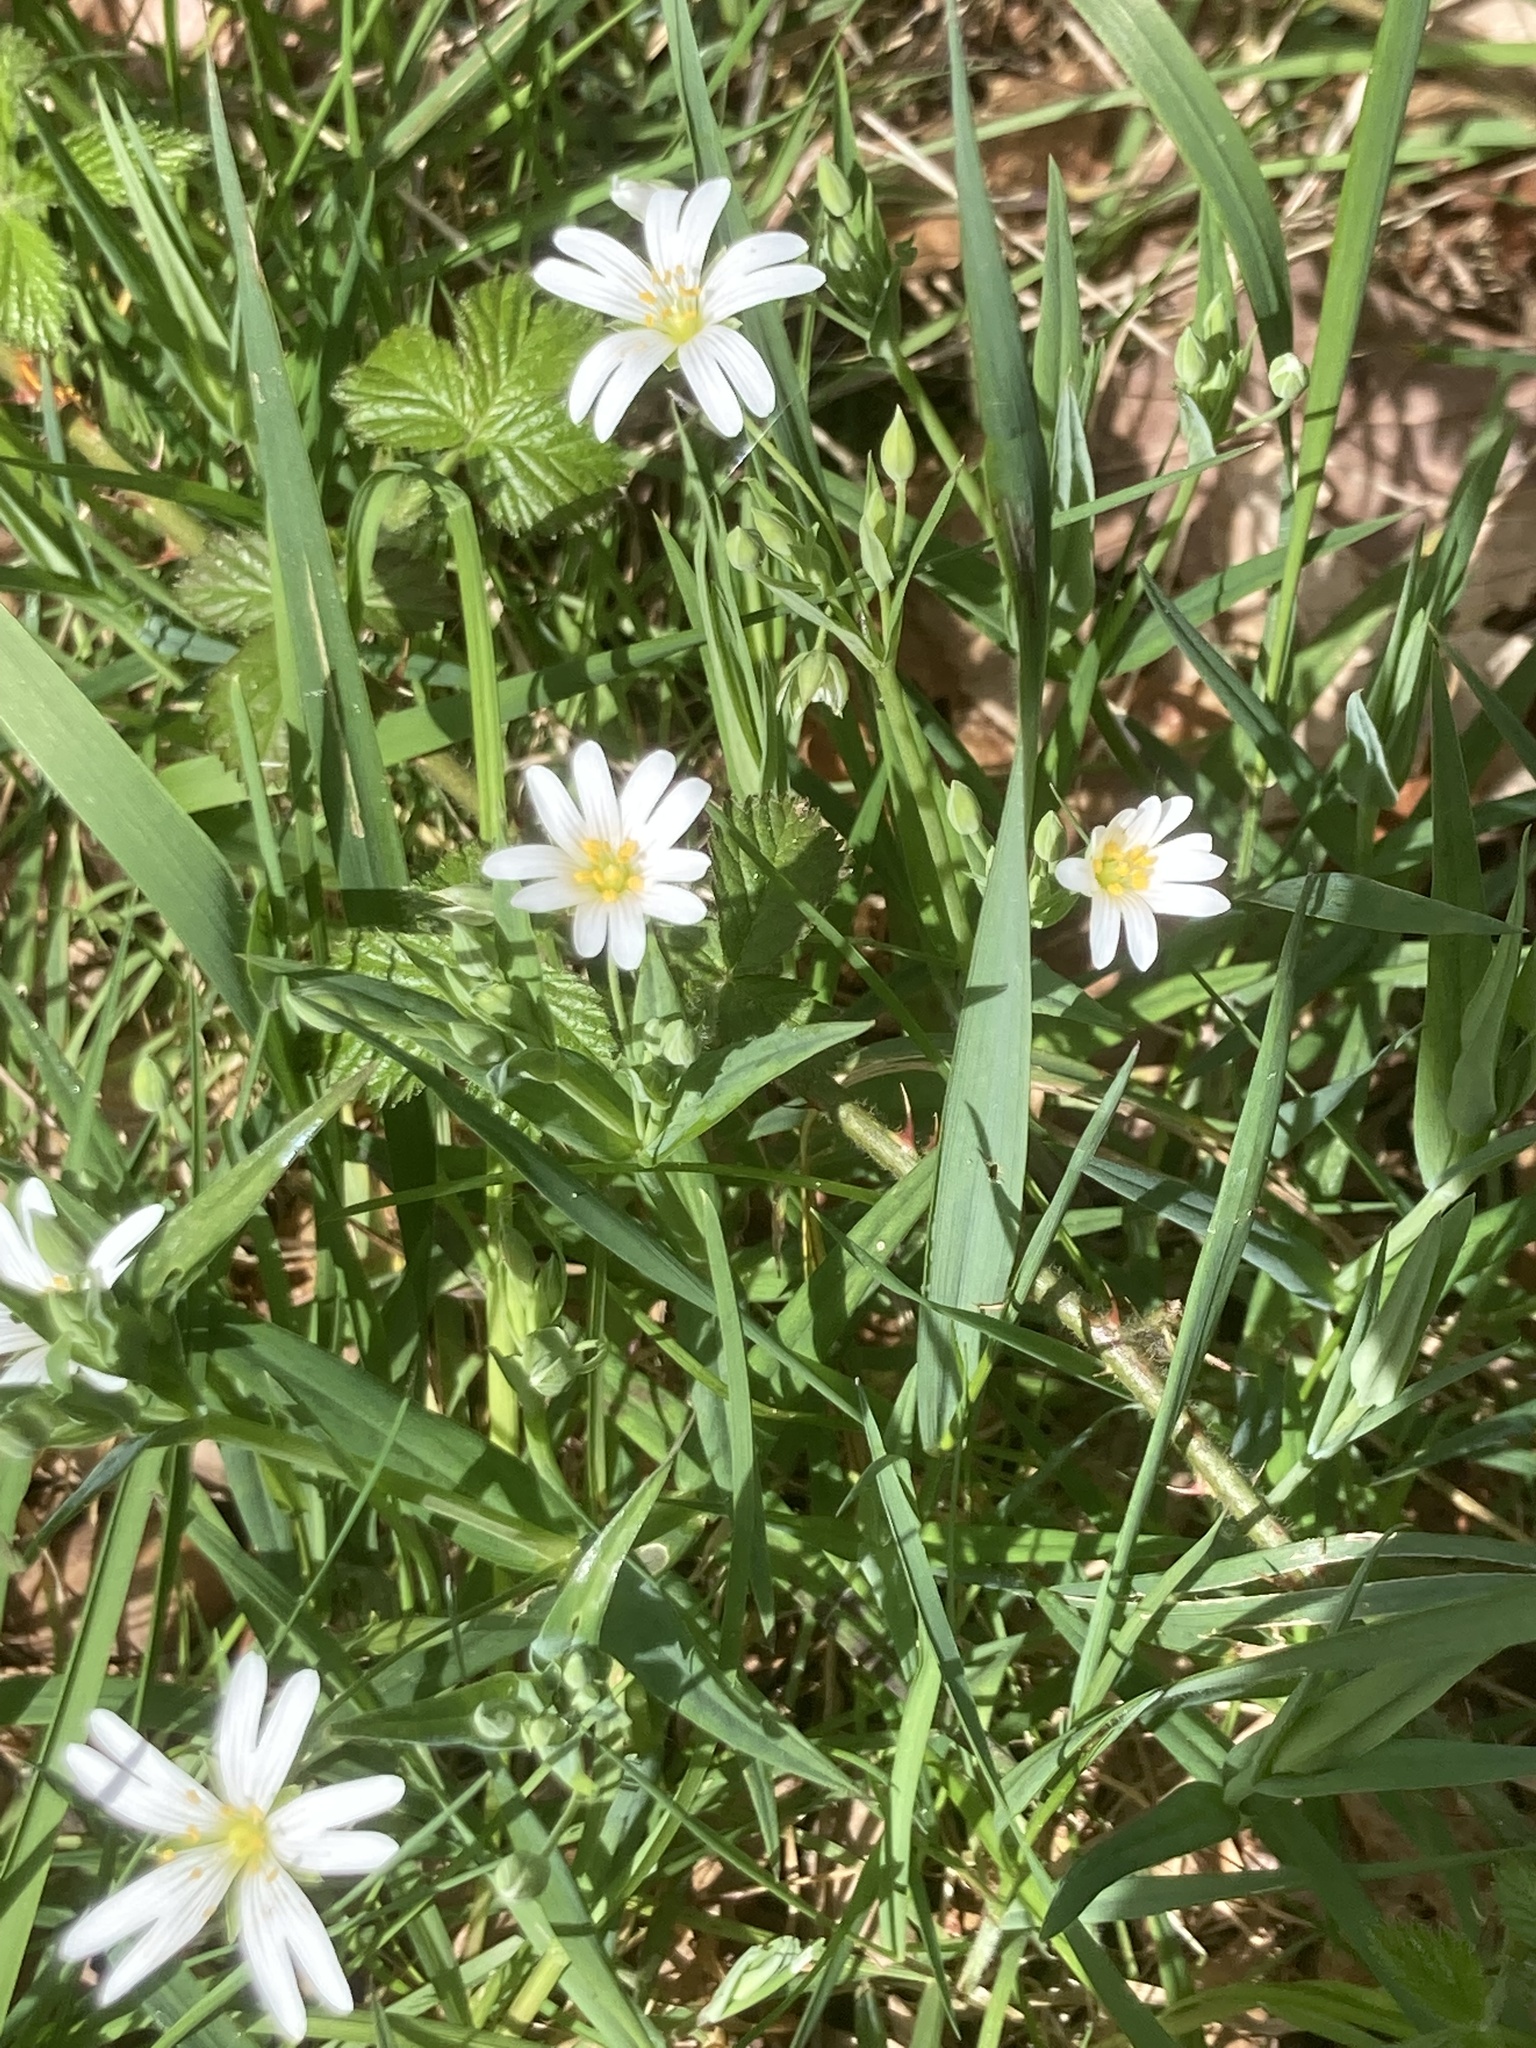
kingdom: Plantae
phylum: Tracheophyta
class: Magnoliopsida
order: Caryophyllales
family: Caryophyllaceae
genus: Rabelera
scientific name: Rabelera holostea
